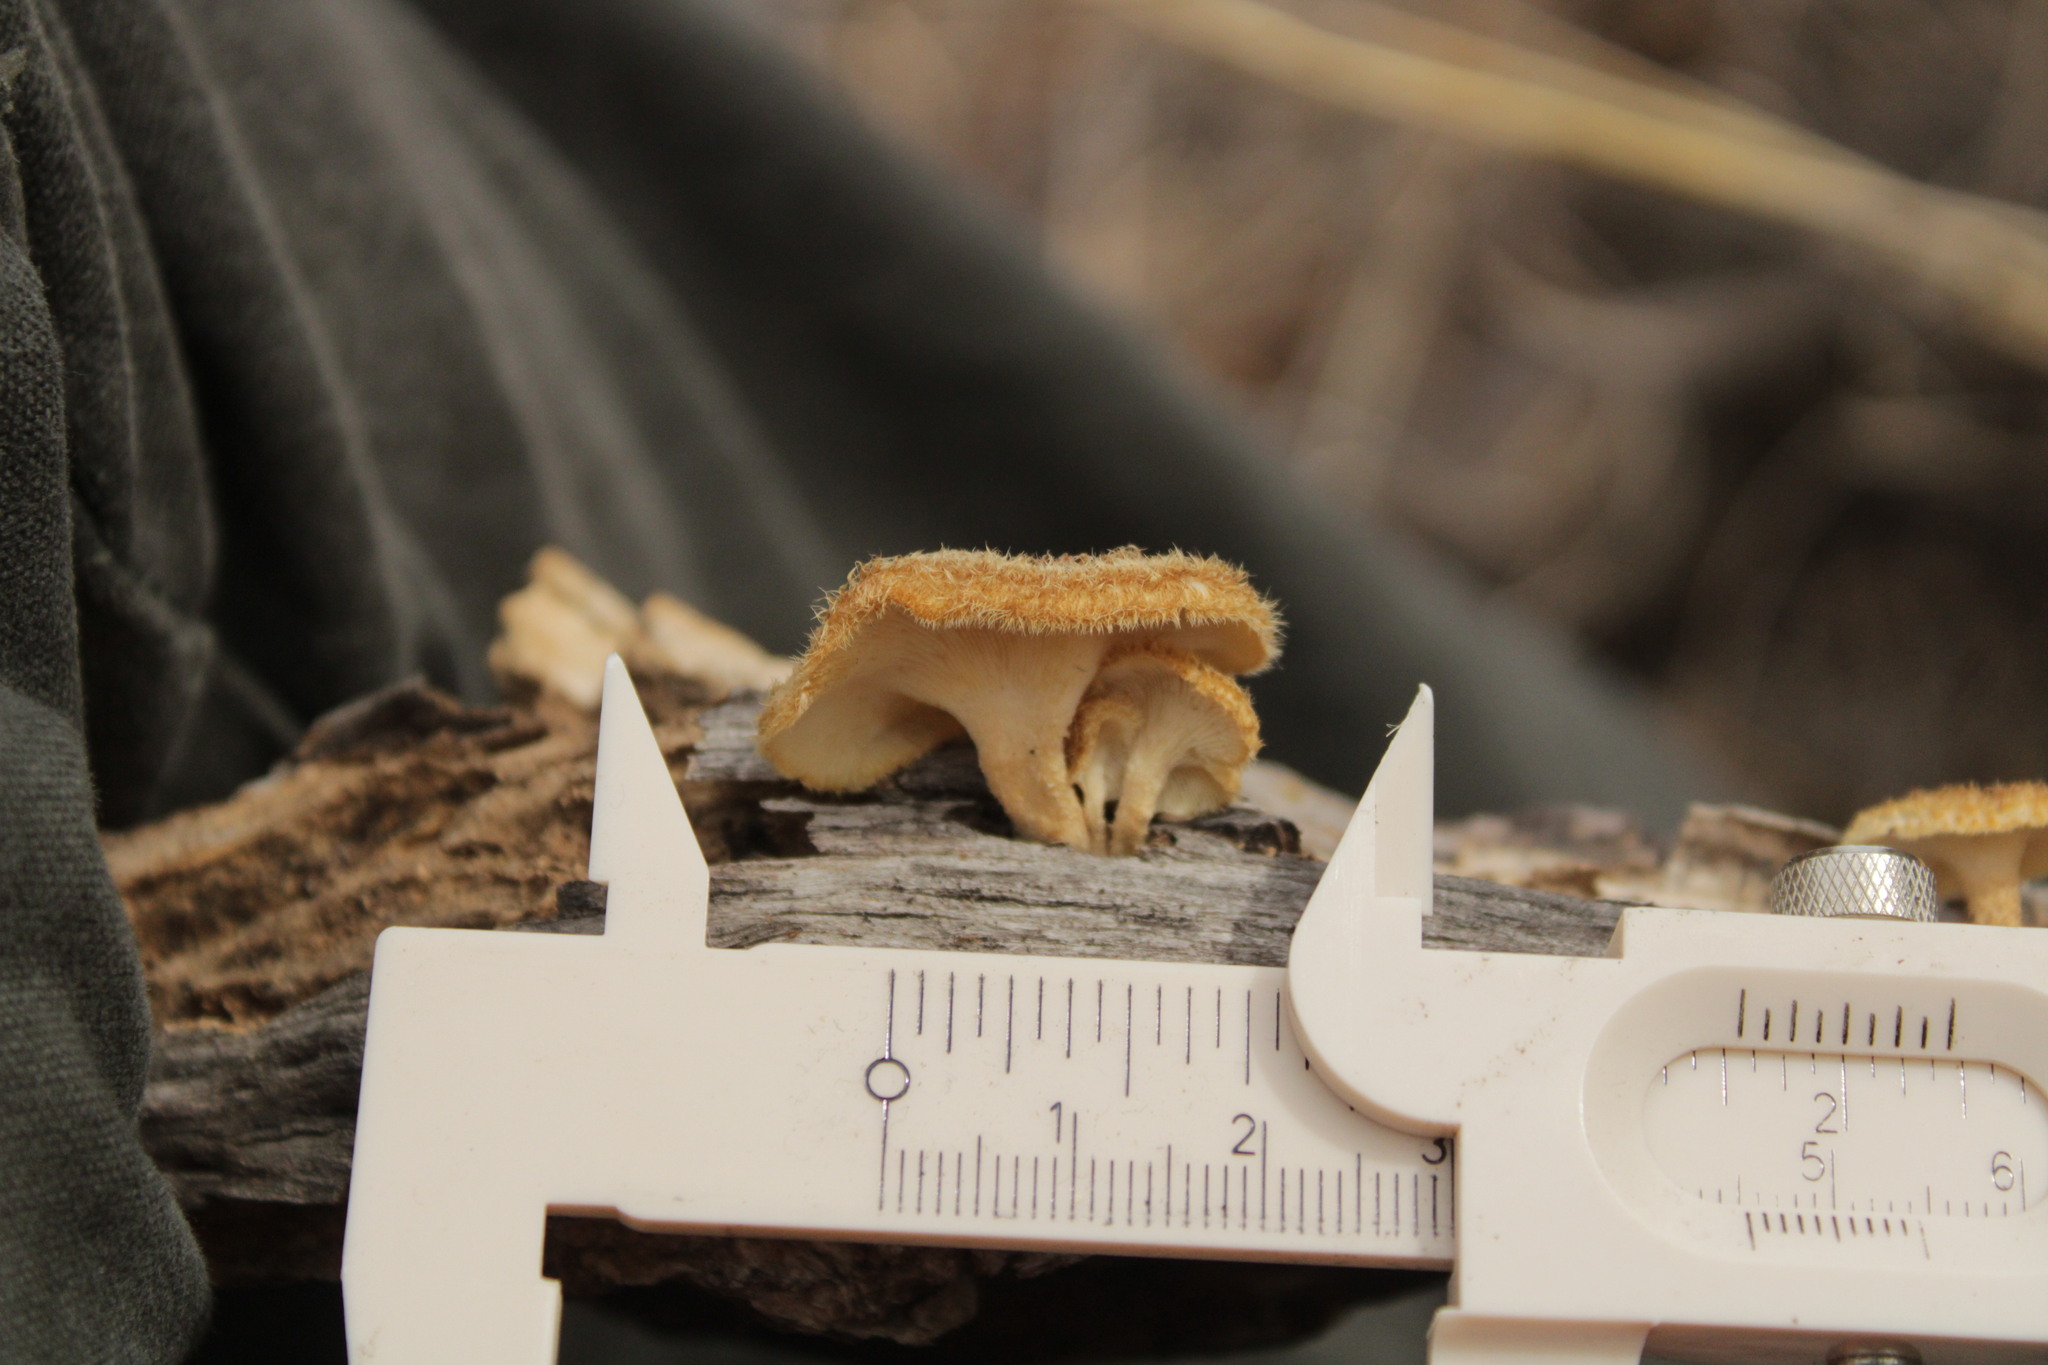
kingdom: Fungi
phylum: Basidiomycota
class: Agaricomycetes
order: Polyporales
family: Polyporaceae
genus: Lentinus
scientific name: Lentinus crinitus
